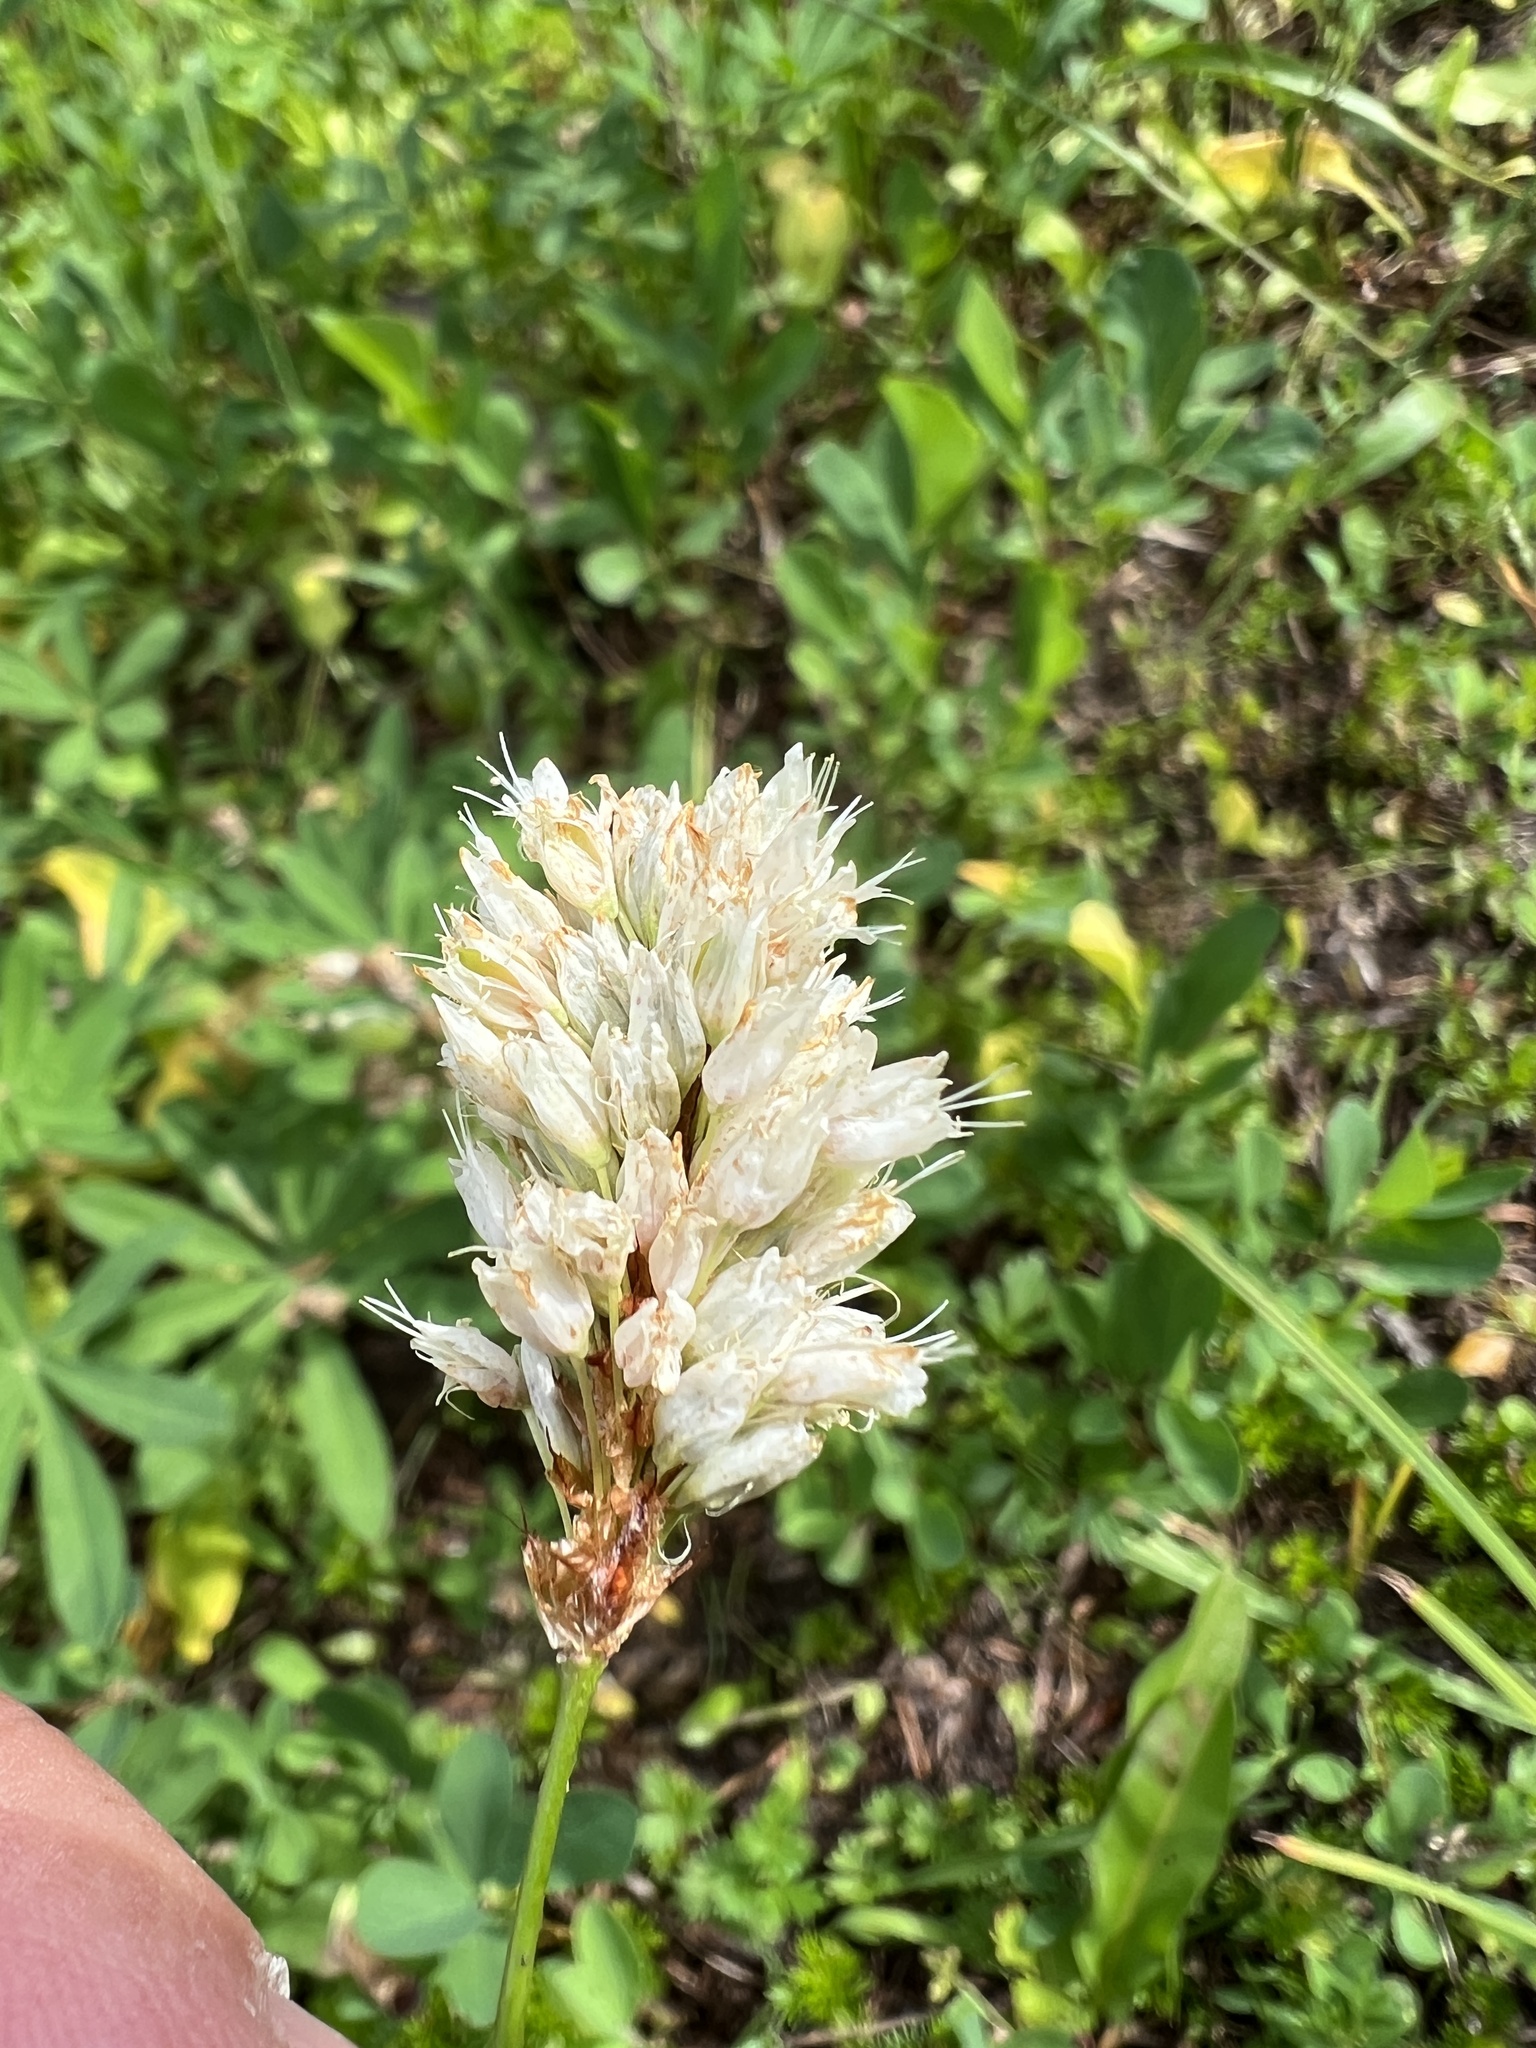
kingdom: Plantae
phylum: Tracheophyta
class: Magnoliopsida
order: Caryophyllales
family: Polygonaceae
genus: Bistorta
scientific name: Bistorta bistortoides
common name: American bistort
